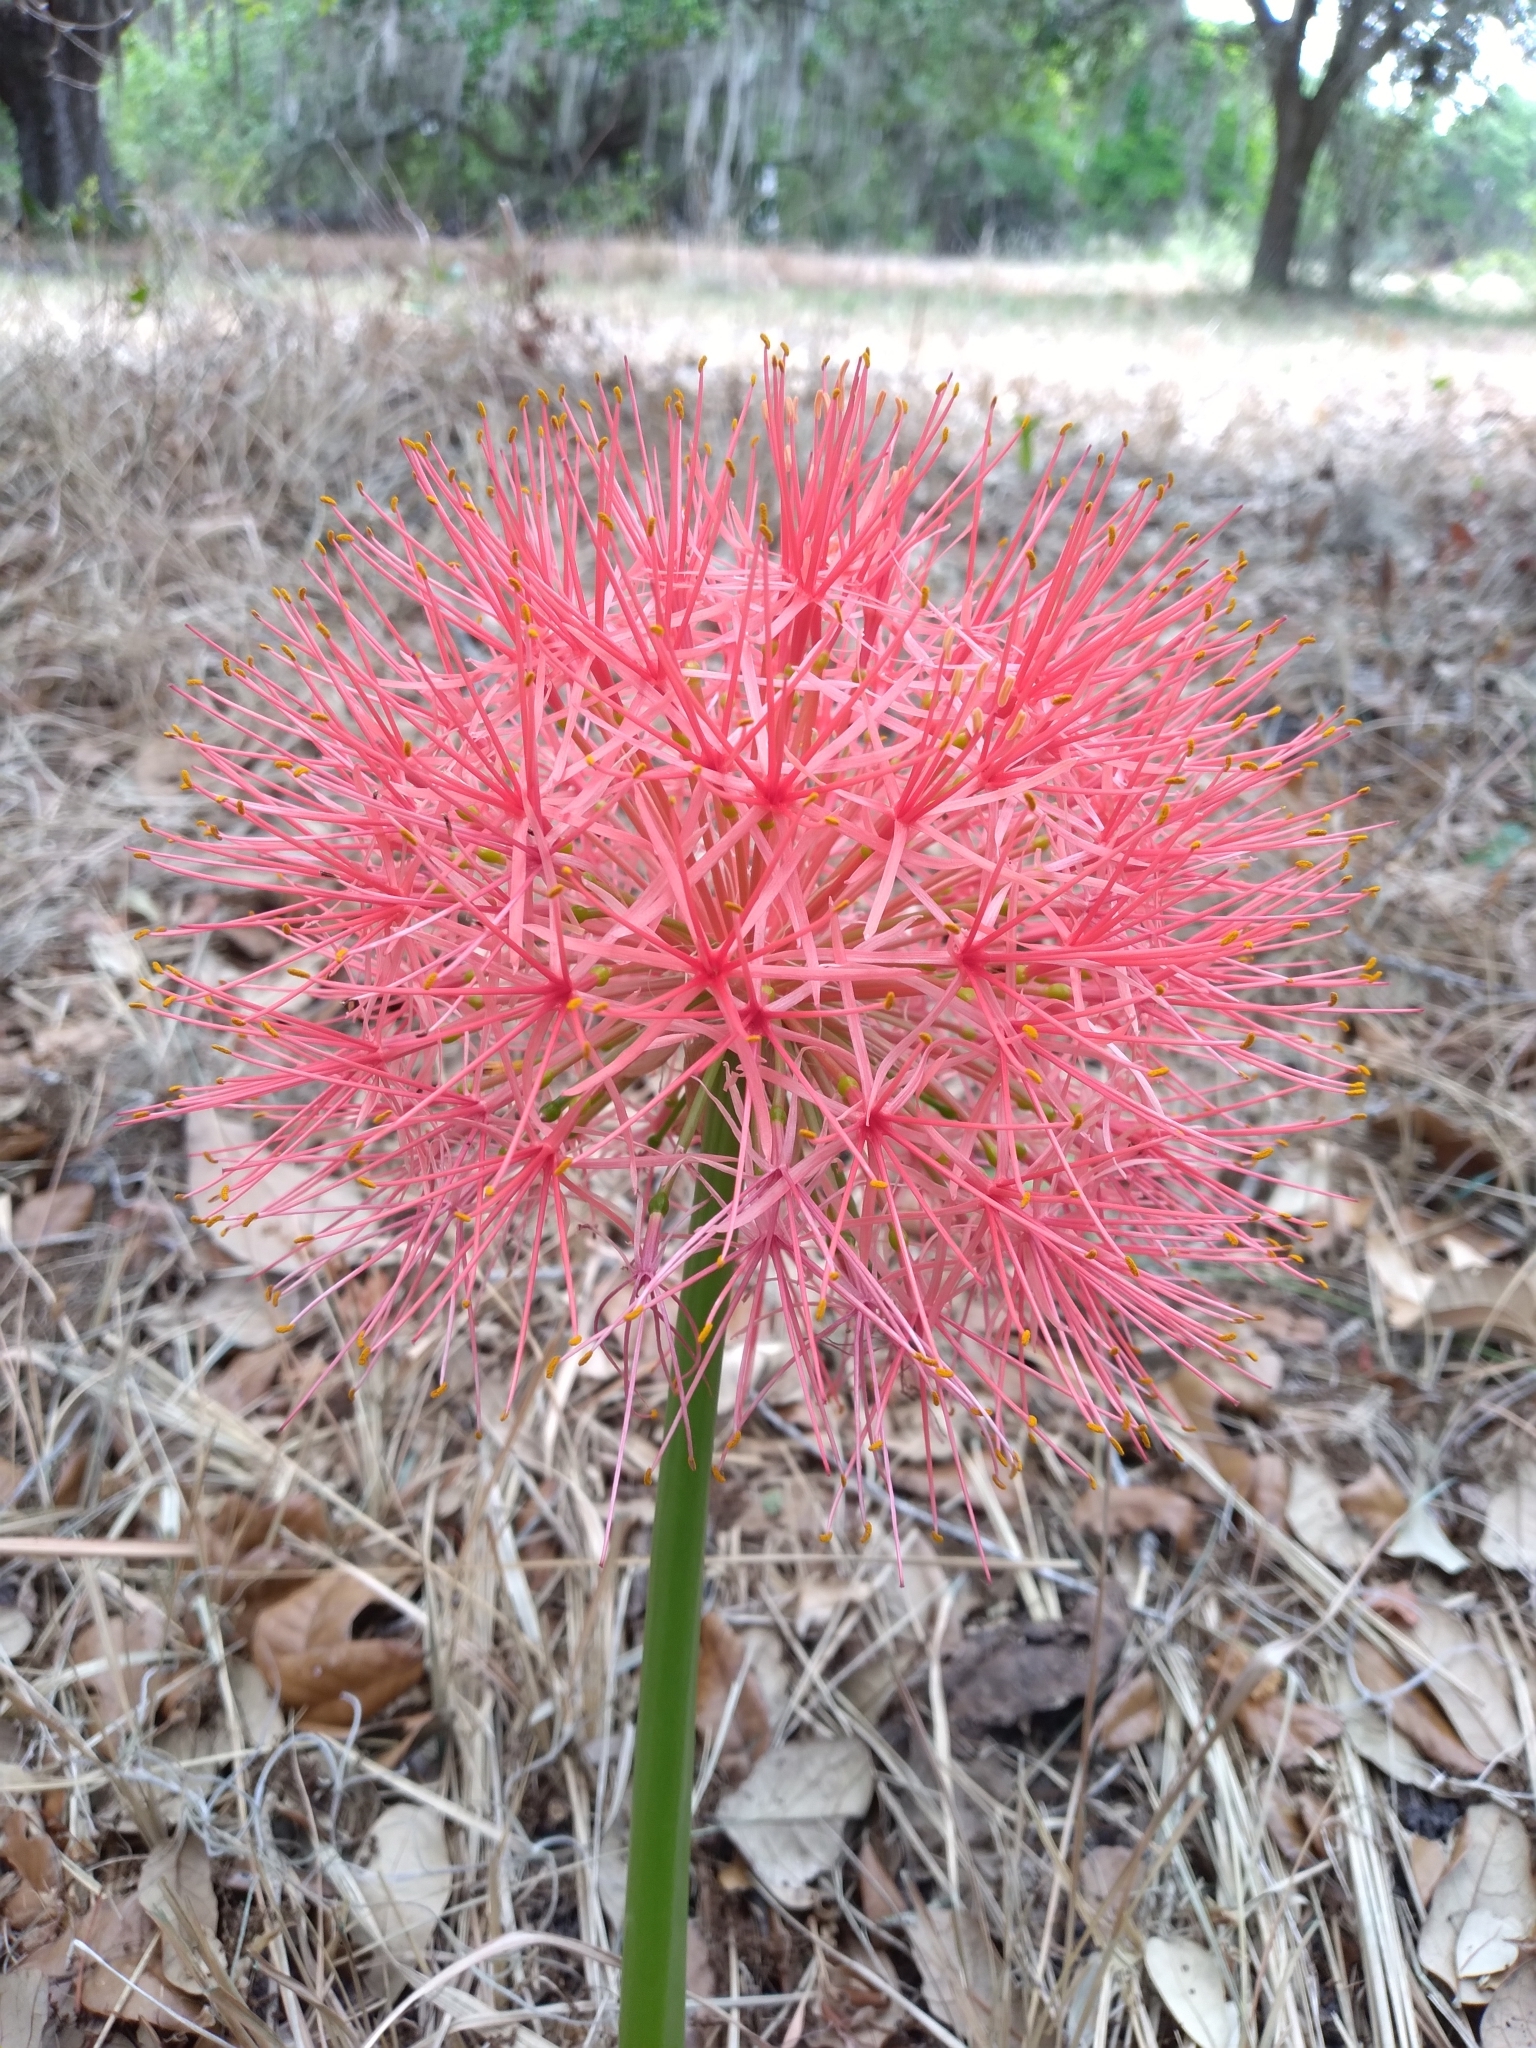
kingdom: Plantae
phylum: Tracheophyta
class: Liliopsida
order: Asparagales
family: Amaryllidaceae
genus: Scadoxus
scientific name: Scadoxus multiflorus
